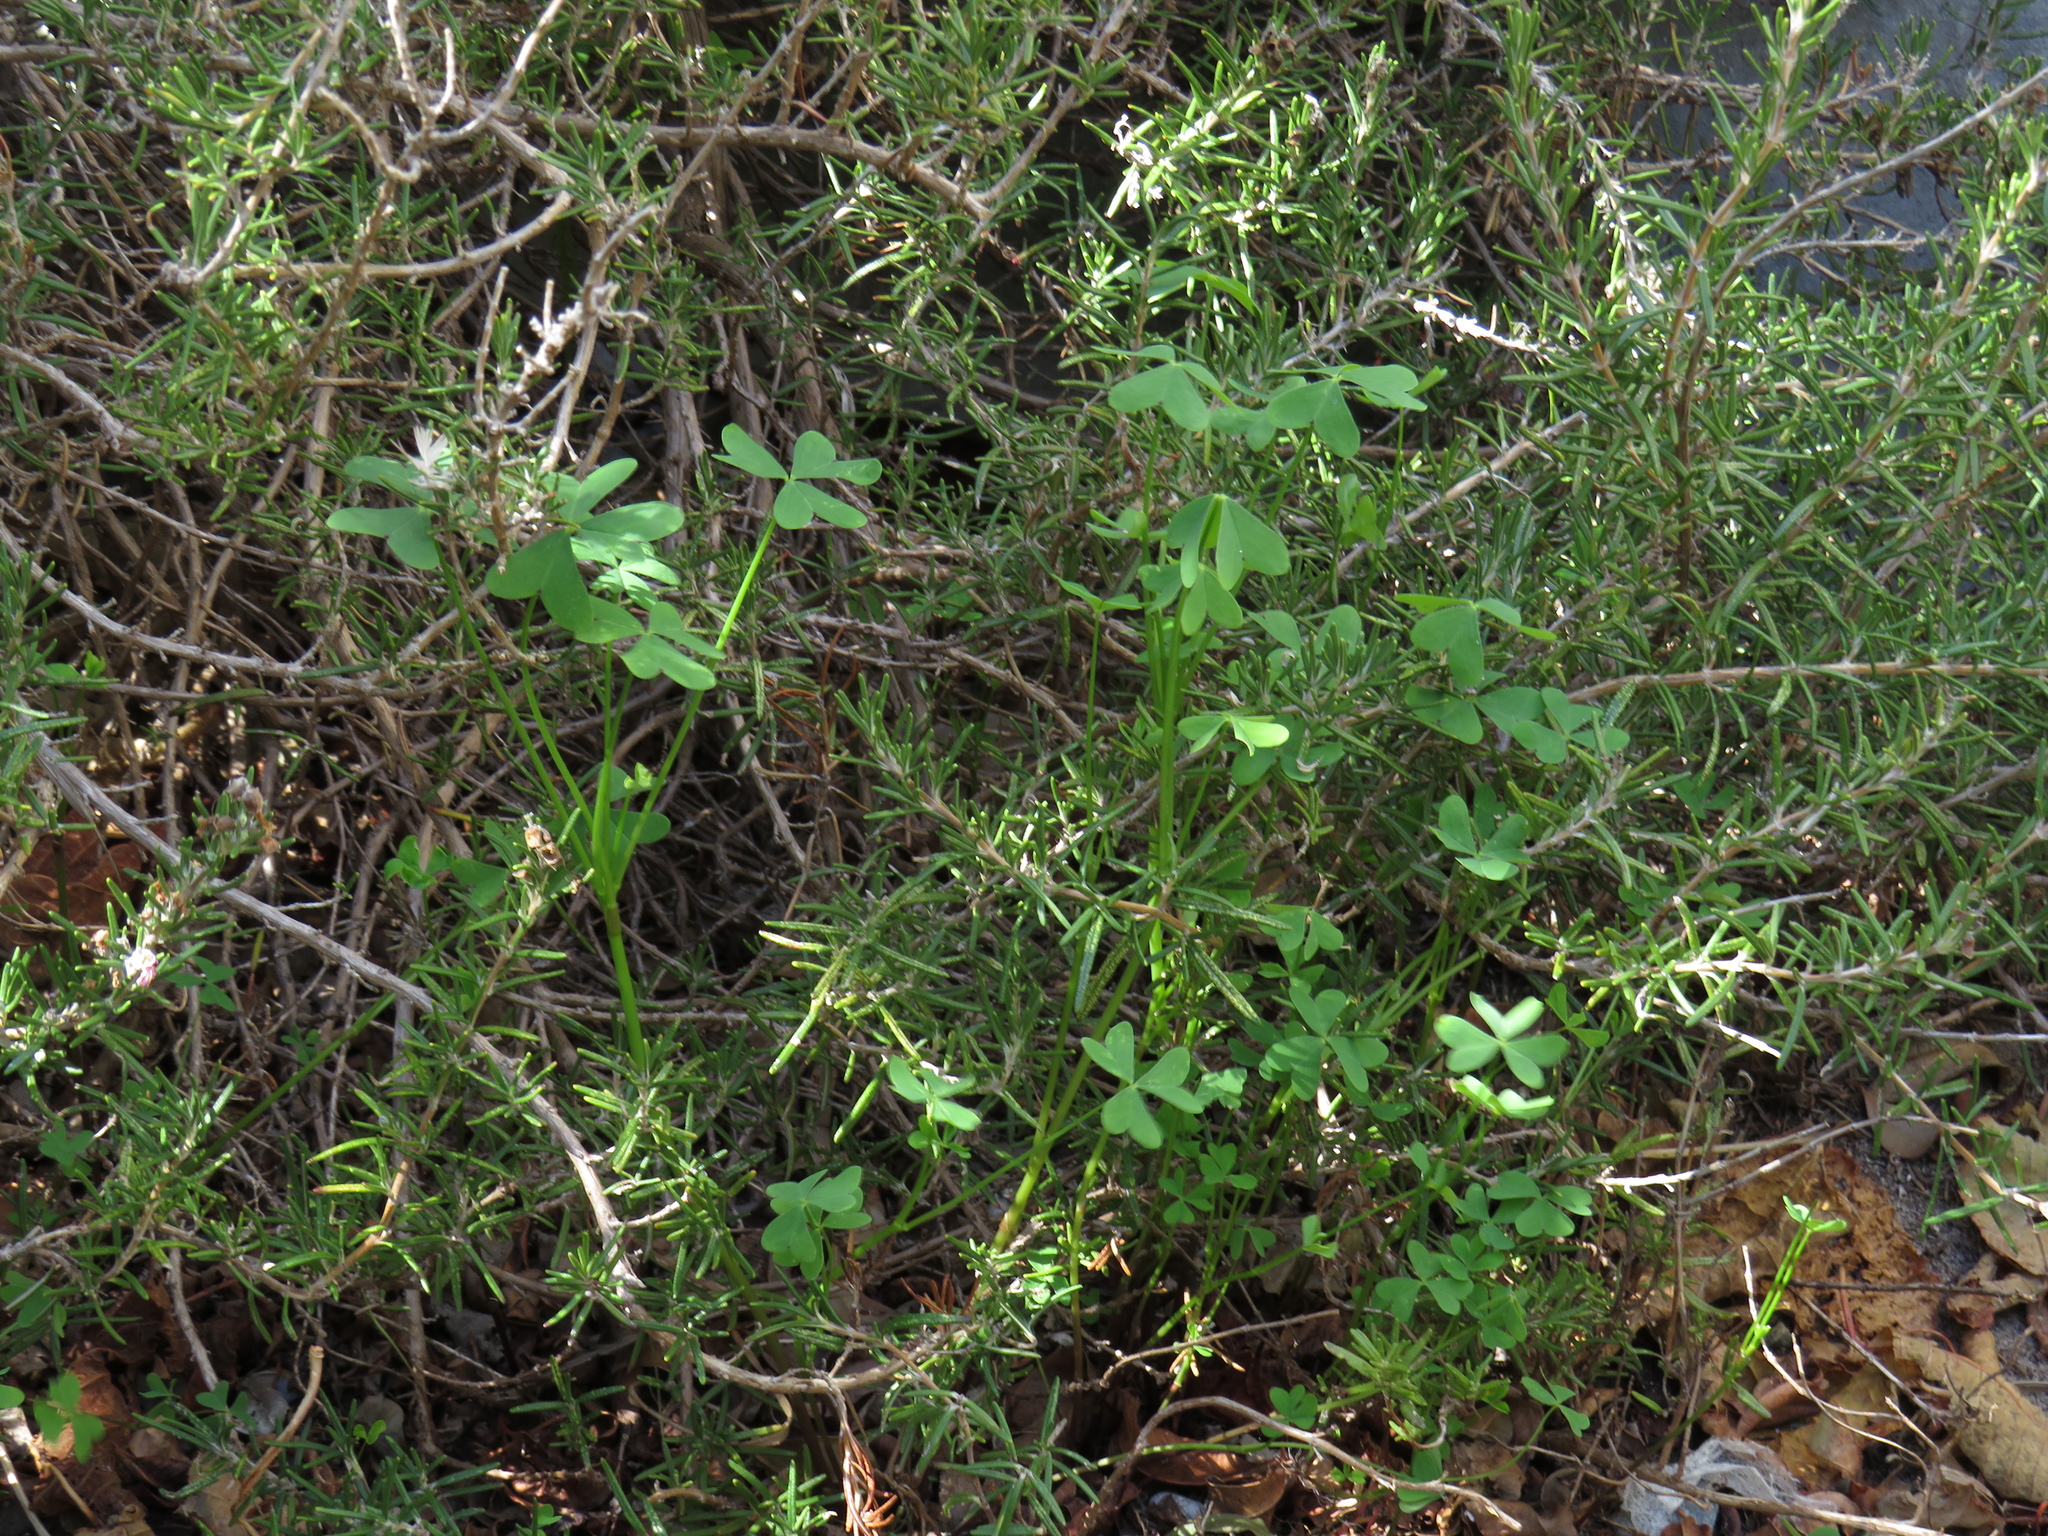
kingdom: Plantae
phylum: Tracheophyta
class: Magnoliopsida
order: Oxalidales
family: Oxalidaceae
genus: Oxalis
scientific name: Oxalis pes-caprae
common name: Bermuda-buttercup
